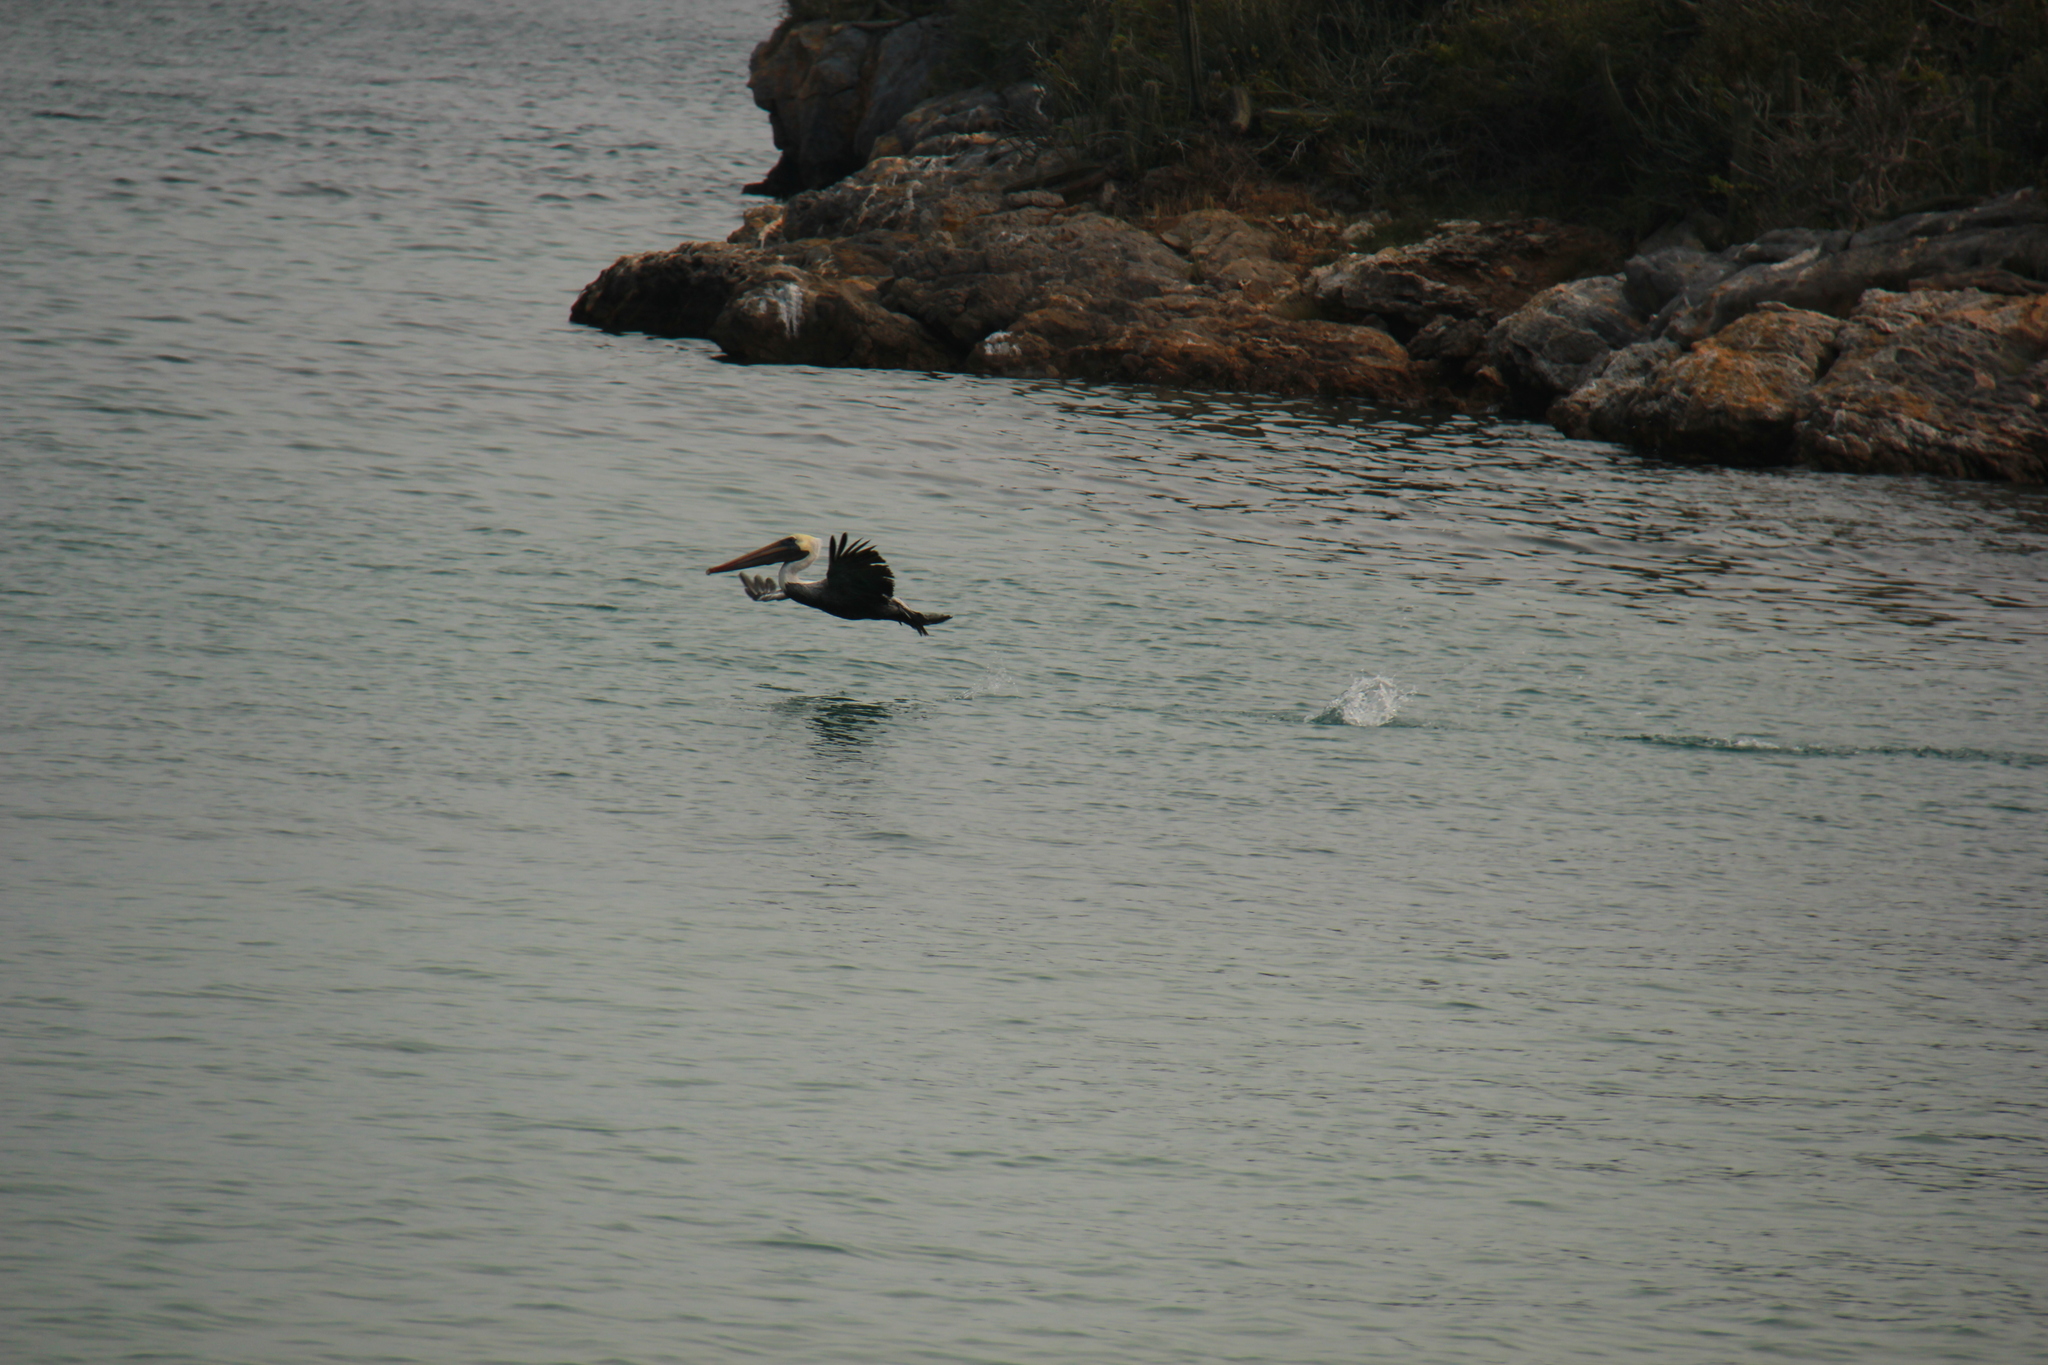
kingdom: Animalia
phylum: Chordata
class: Aves
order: Pelecaniformes
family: Pelecanidae
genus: Pelecanus
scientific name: Pelecanus occidentalis
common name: Brown pelican
